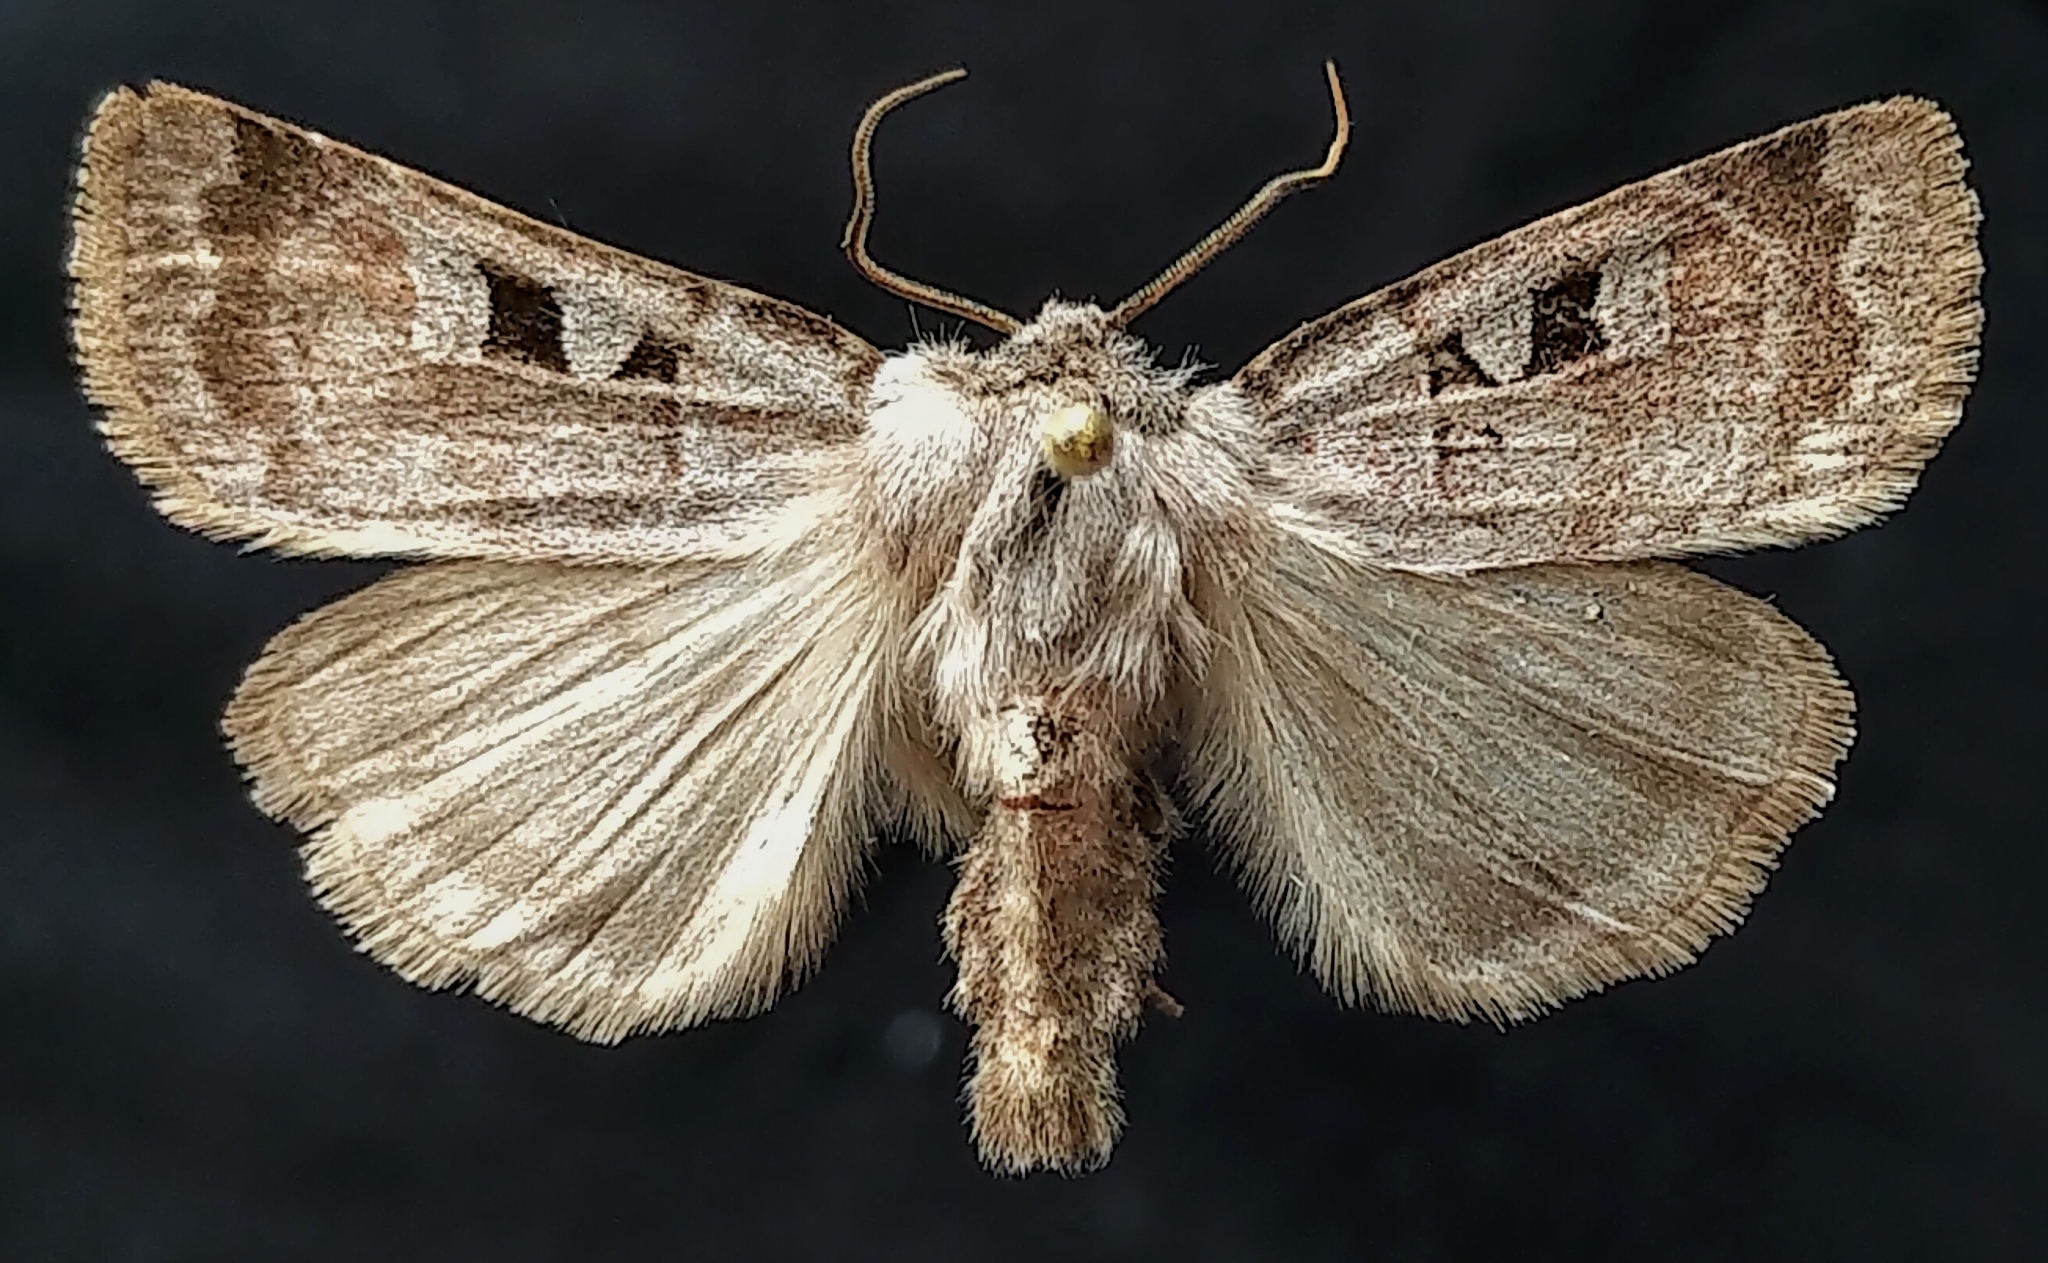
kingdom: Animalia
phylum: Arthropoda
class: Insecta
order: Lepidoptera
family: Noctuidae
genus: Feltia
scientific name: Feltia mollis
